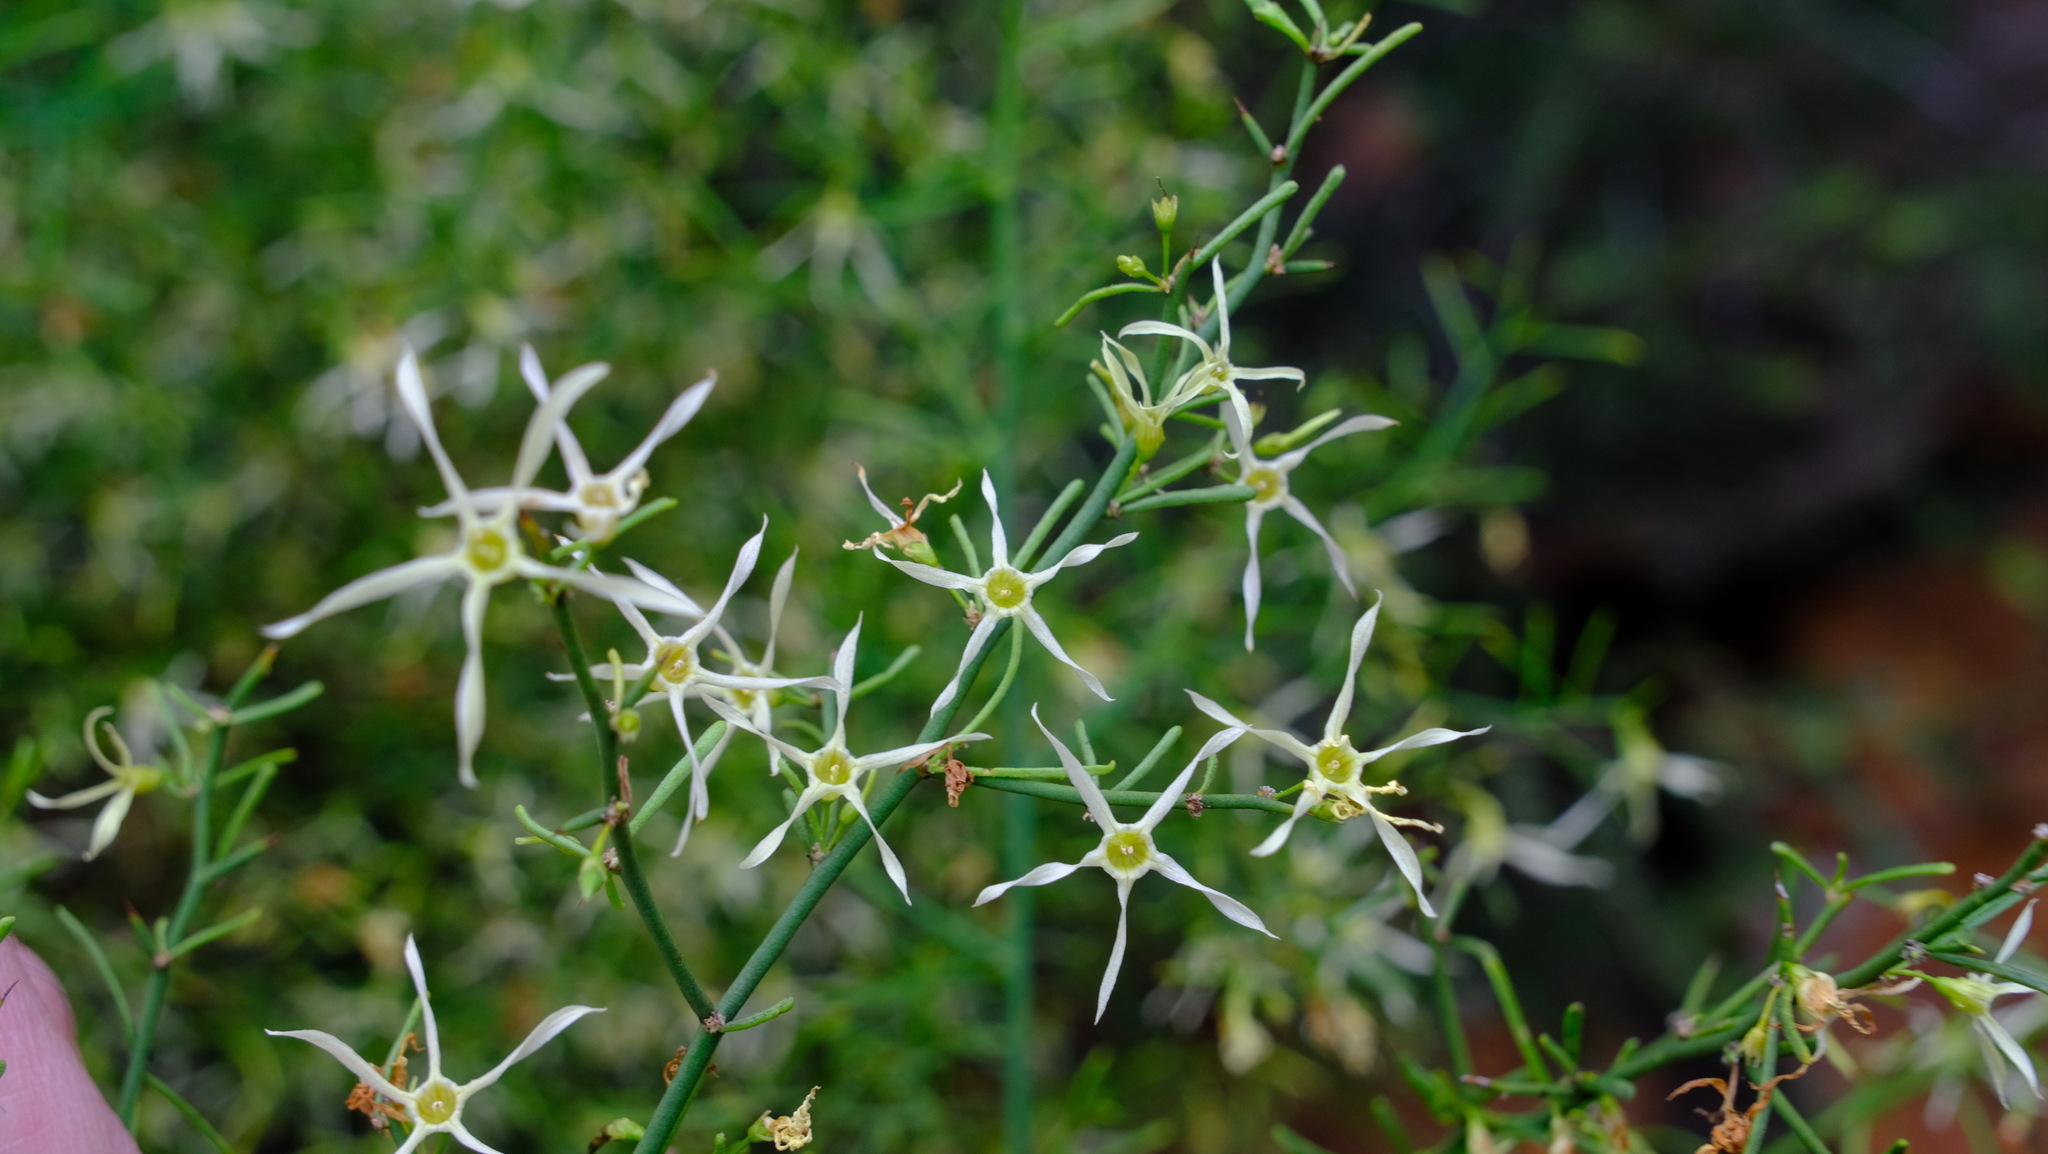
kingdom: Plantae
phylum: Tracheophyta
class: Magnoliopsida
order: Solanales
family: Solanaceae
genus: Anthocercis
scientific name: Anthocercis genistoides
